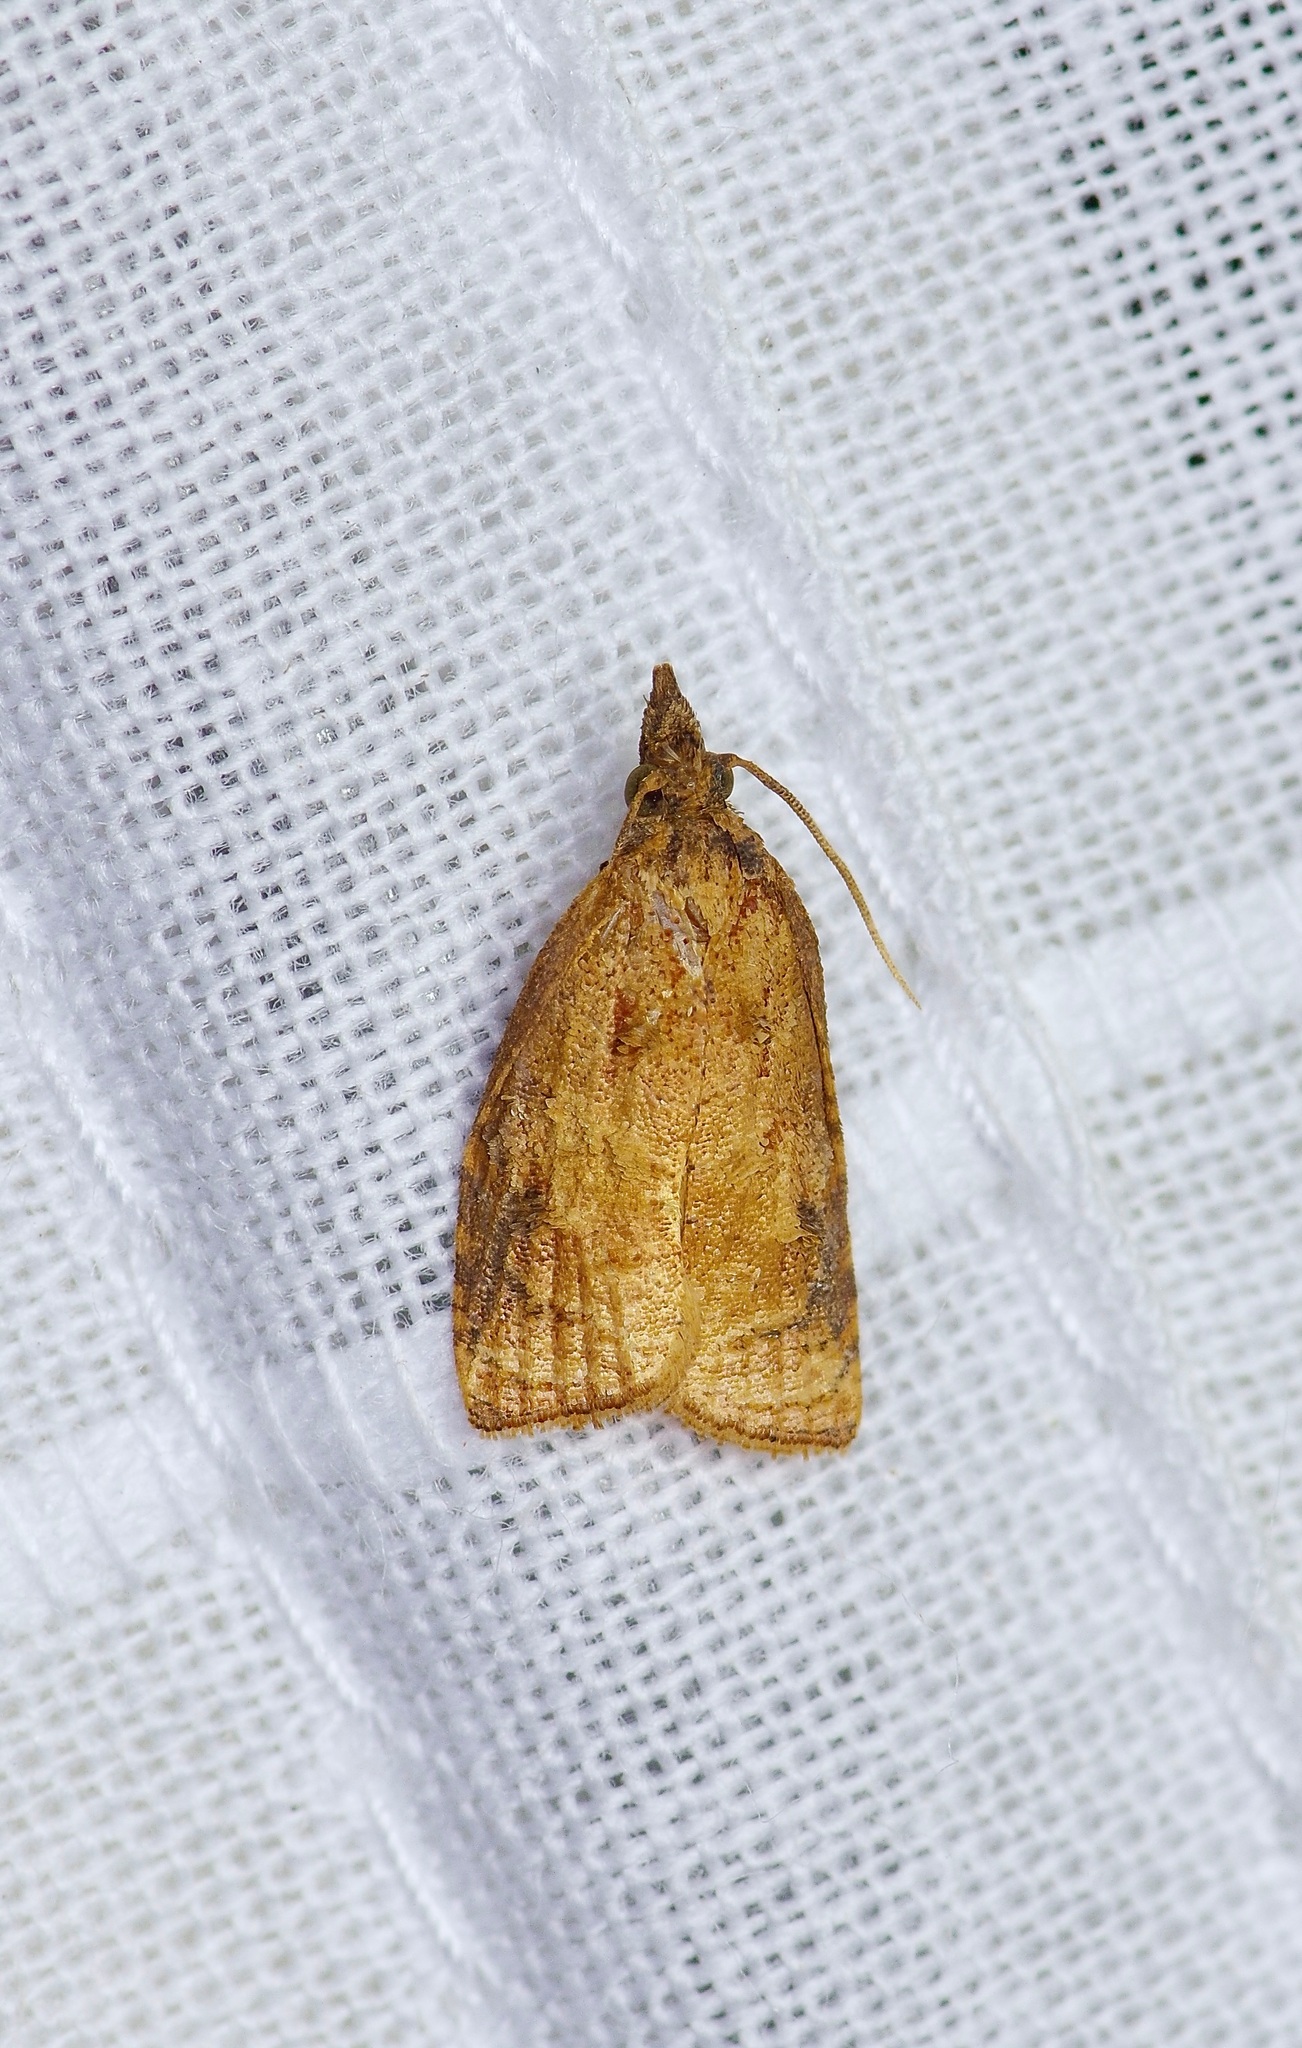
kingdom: Animalia
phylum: Arthropoda
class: Insecta
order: Lepidoptera
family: Tortricidae
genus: Platynota
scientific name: Platynota rostrana
